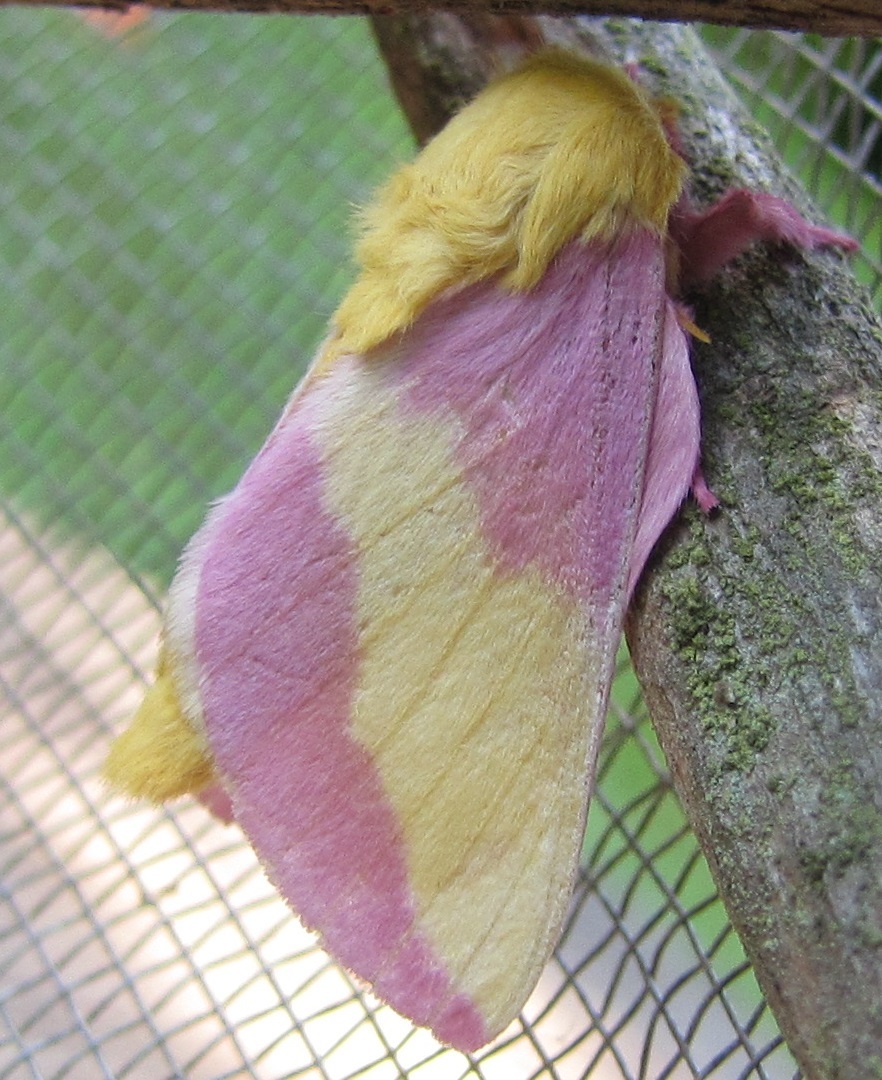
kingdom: Animalia
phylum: Arthropoda
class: Insecta
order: Lepidoptera
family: Saturniidae
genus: Dryocampa
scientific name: Dryocampa rubicunda
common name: Rosy maple moth
